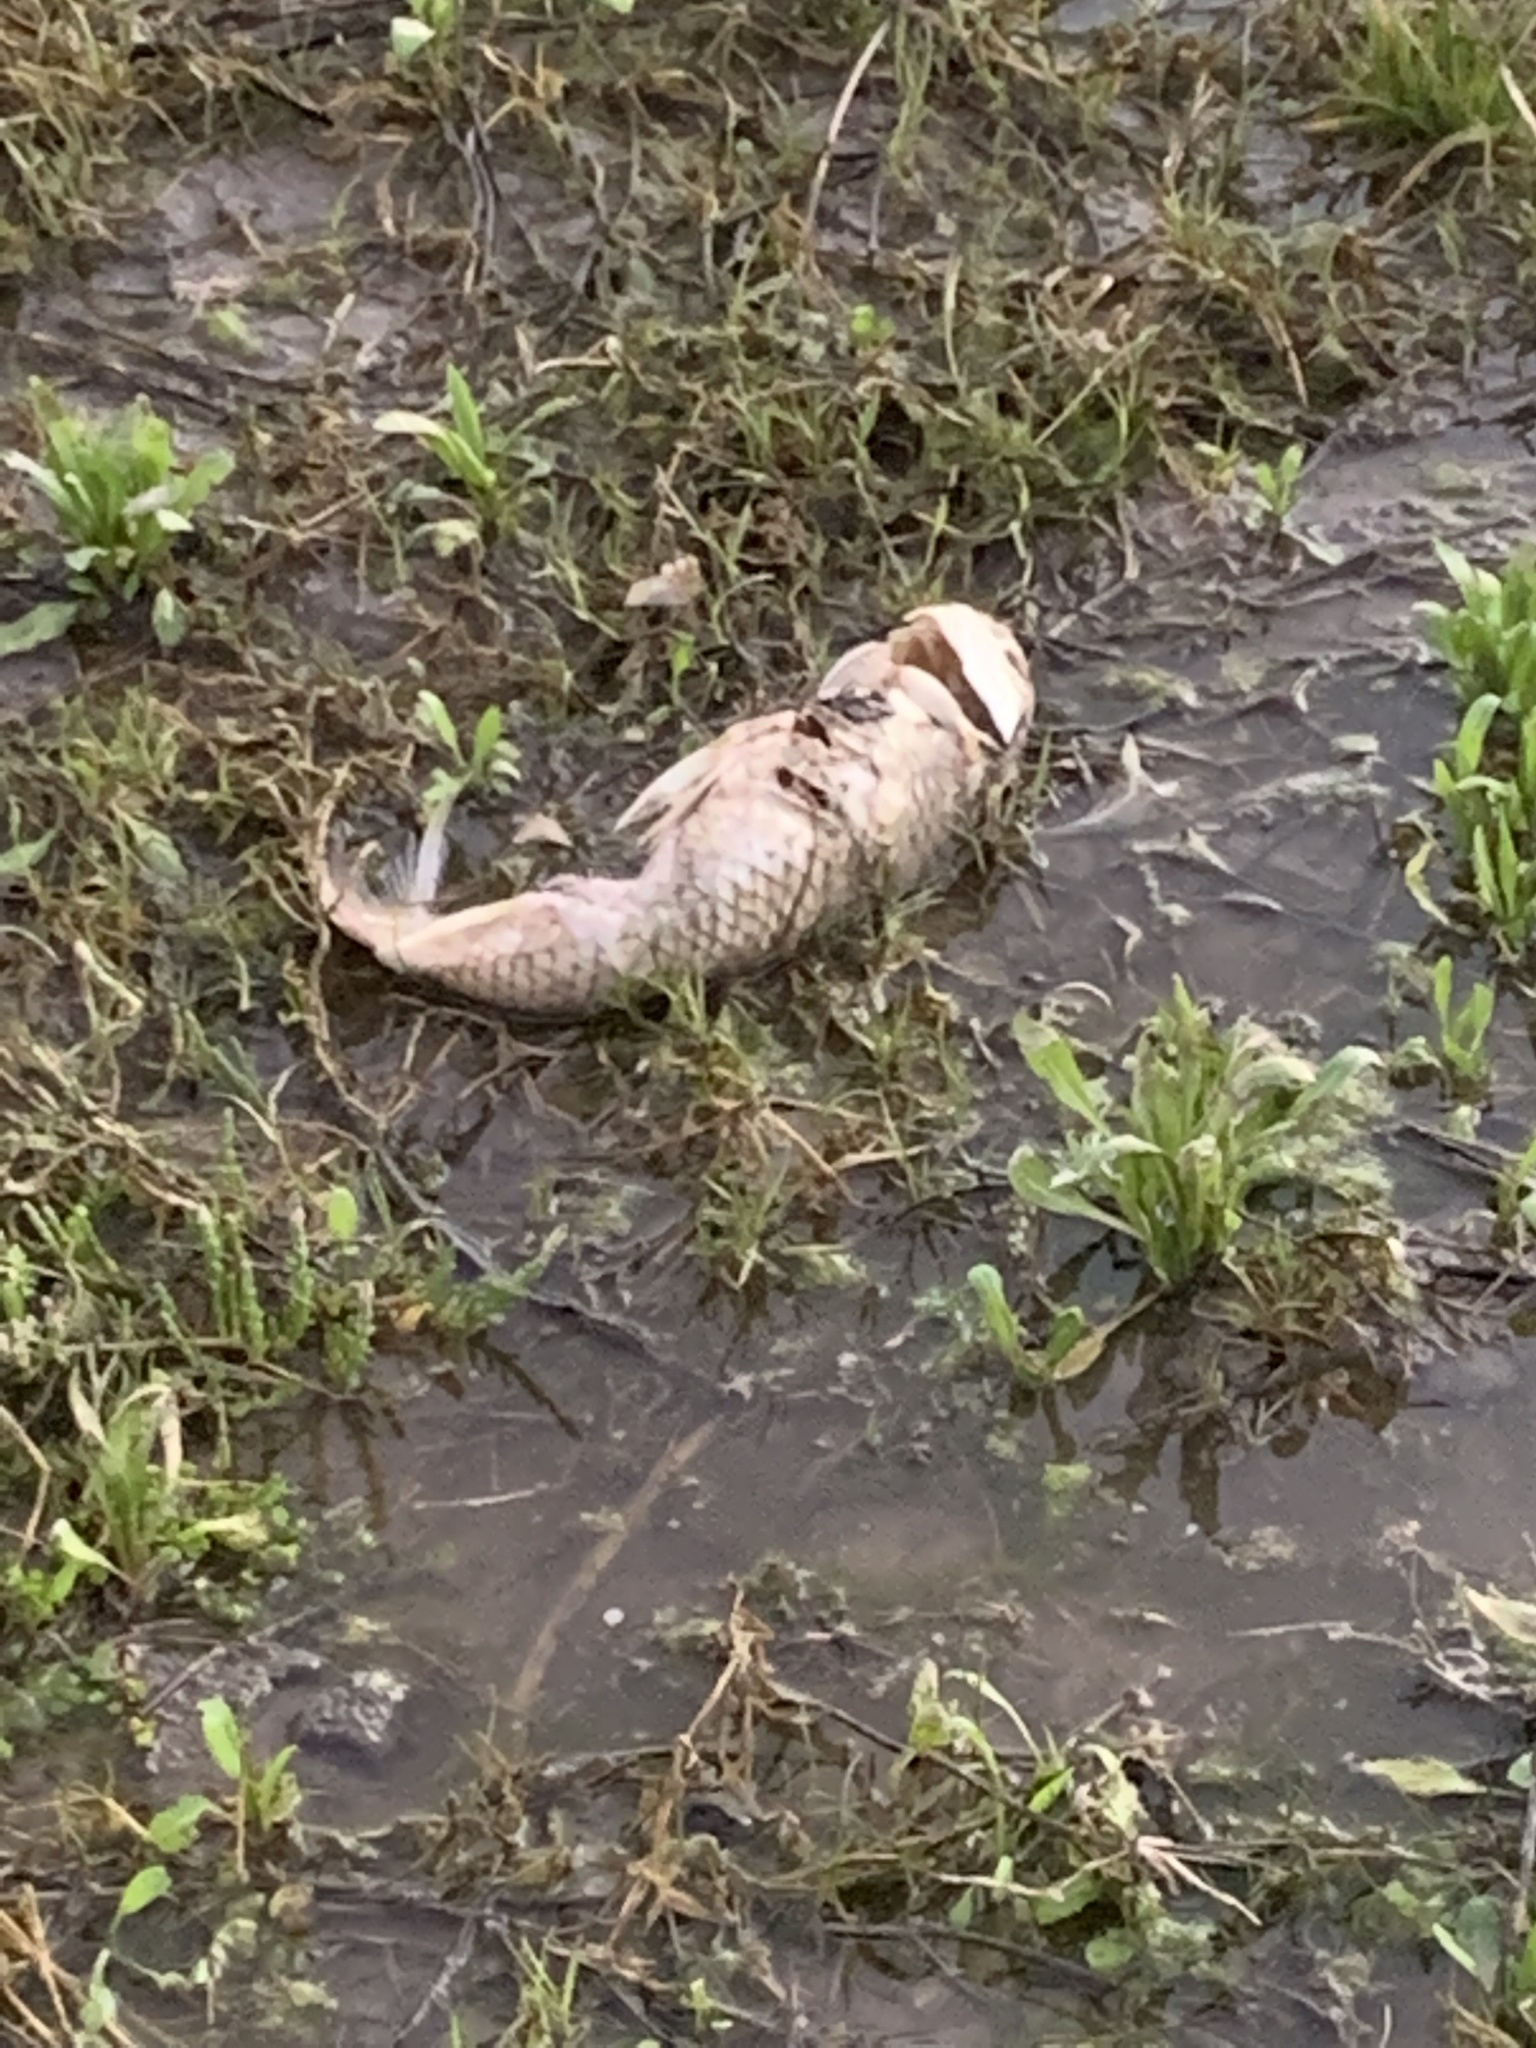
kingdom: Animalia
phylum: Chordata
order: Cypriniformes
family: Cyprinidae
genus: Cyprinus
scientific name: Cyprinus carpio
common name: Common carp
